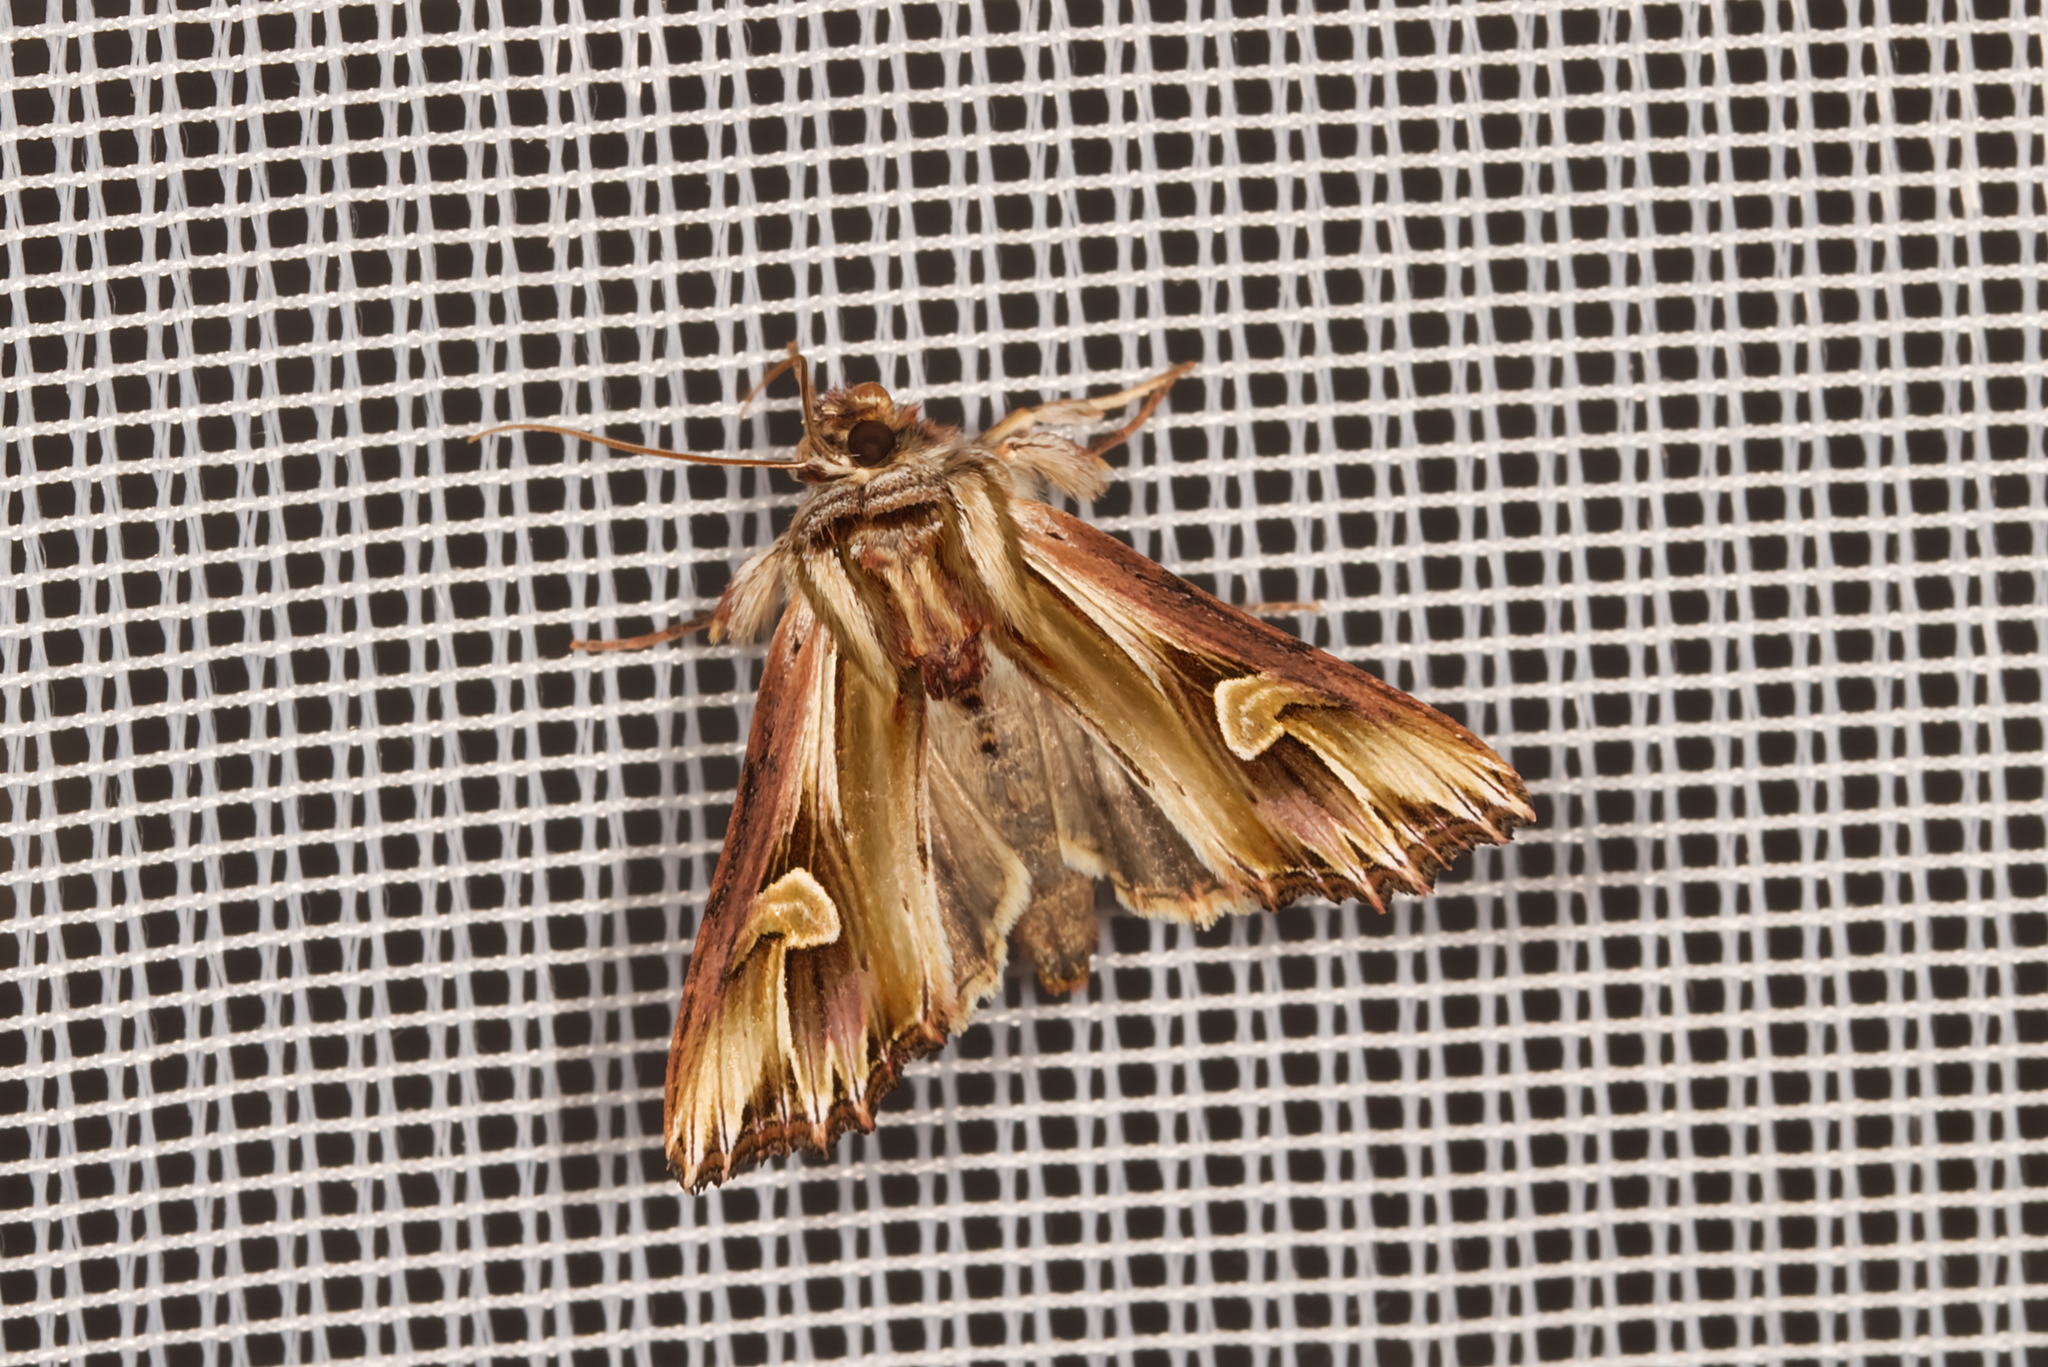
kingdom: Animalia
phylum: Arthropoda
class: Insecta
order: Lepidoptera
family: Noctuidae
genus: Actinotia
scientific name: Actinotia polyodon
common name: Purple cloud
